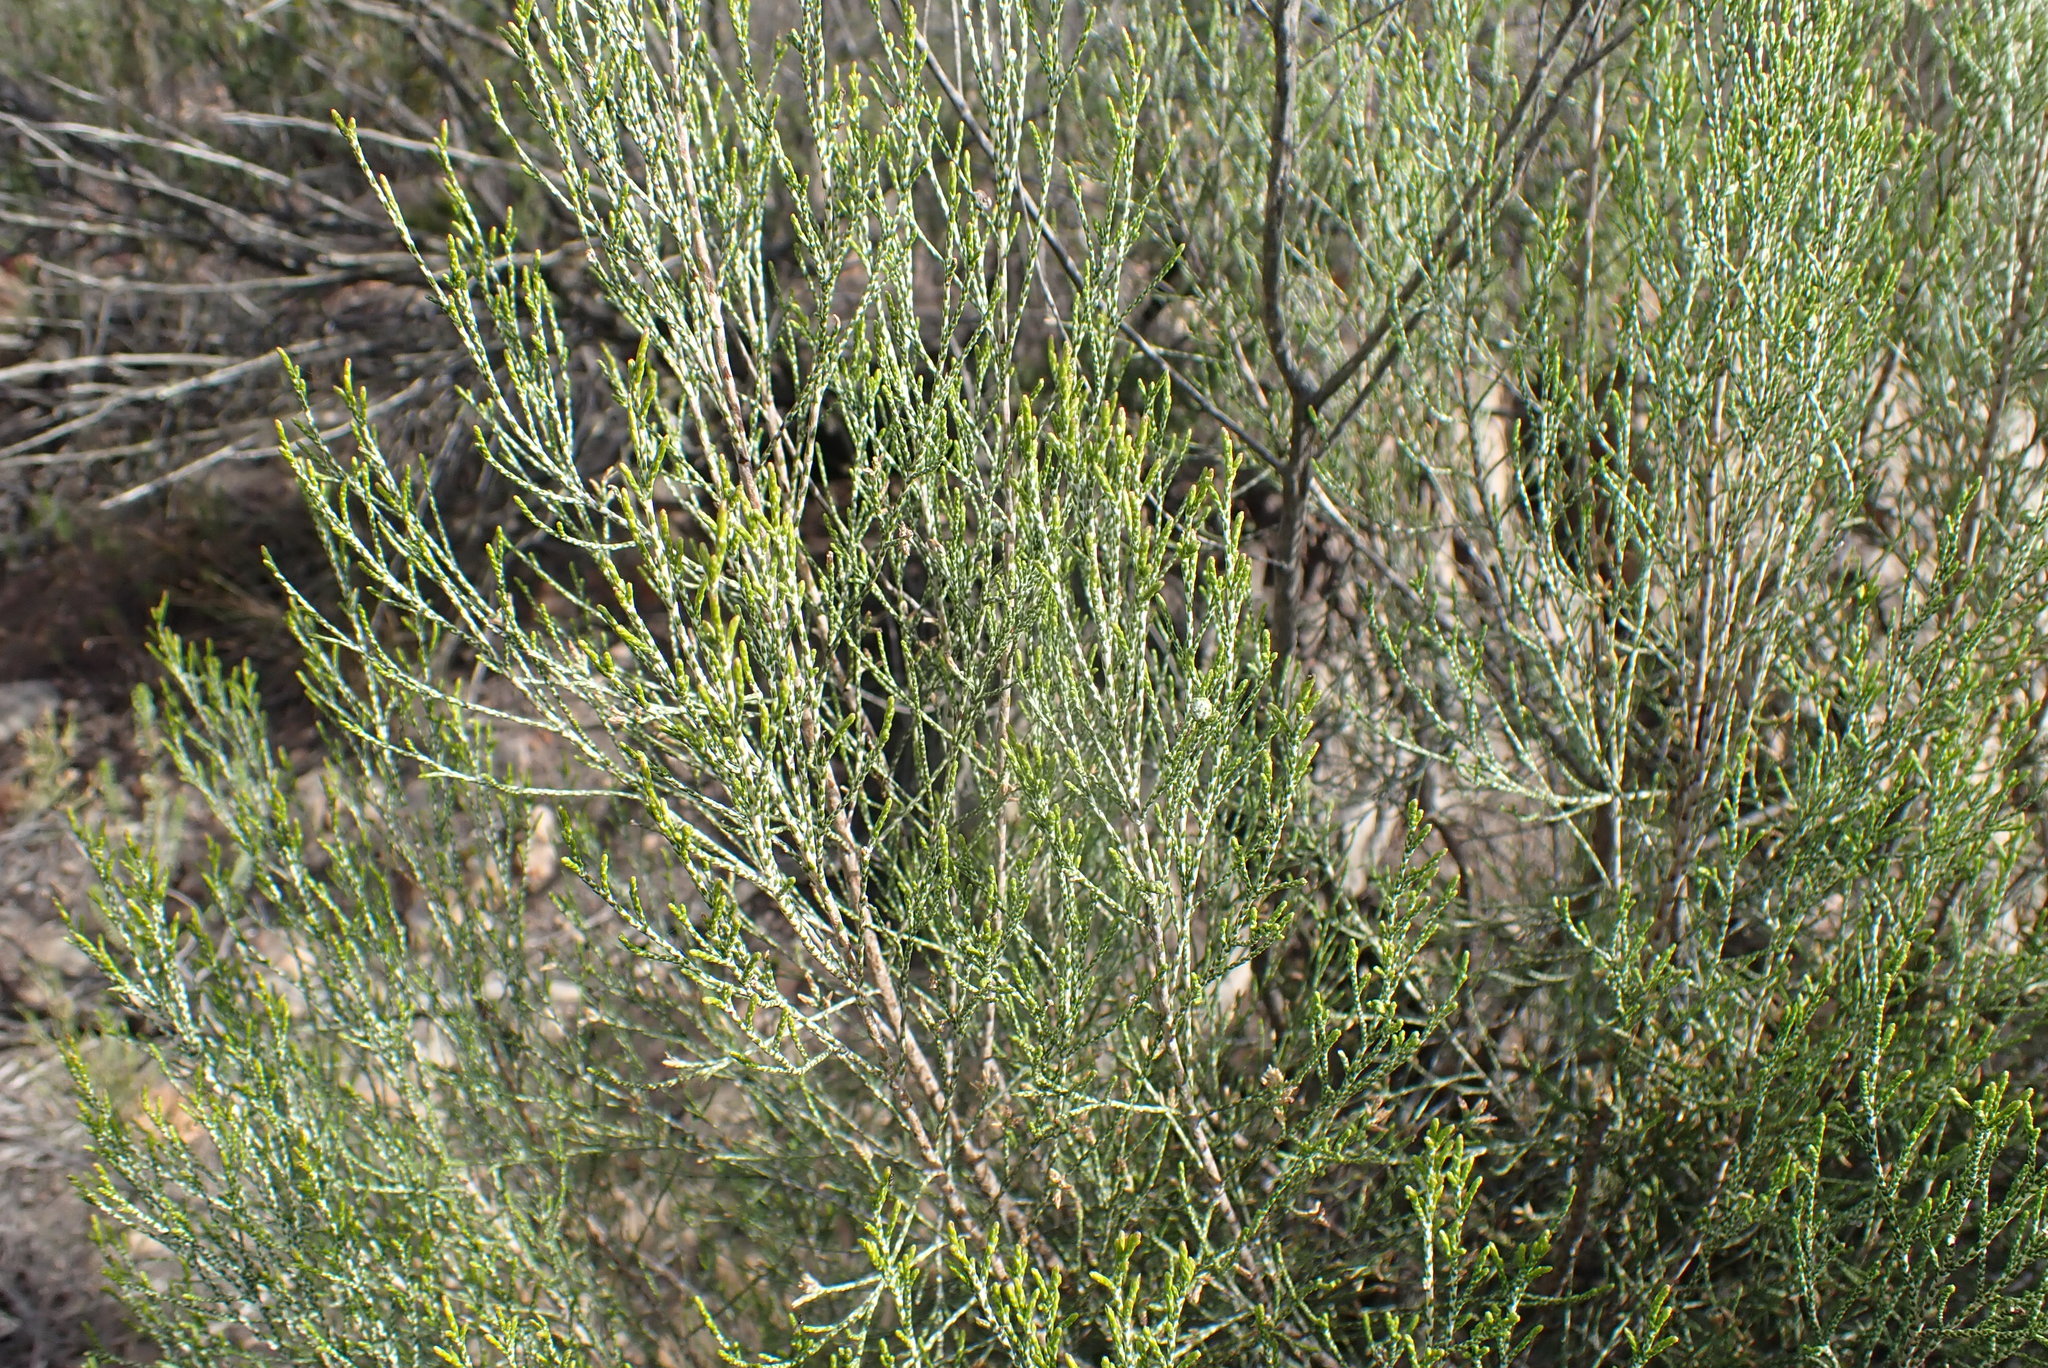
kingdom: Plantae
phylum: Tracheophyta
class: Magnoliopsida
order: Asterales
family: Asteraceae
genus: Dicerothamnus
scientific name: Dicerothamnus rhinocerotis
